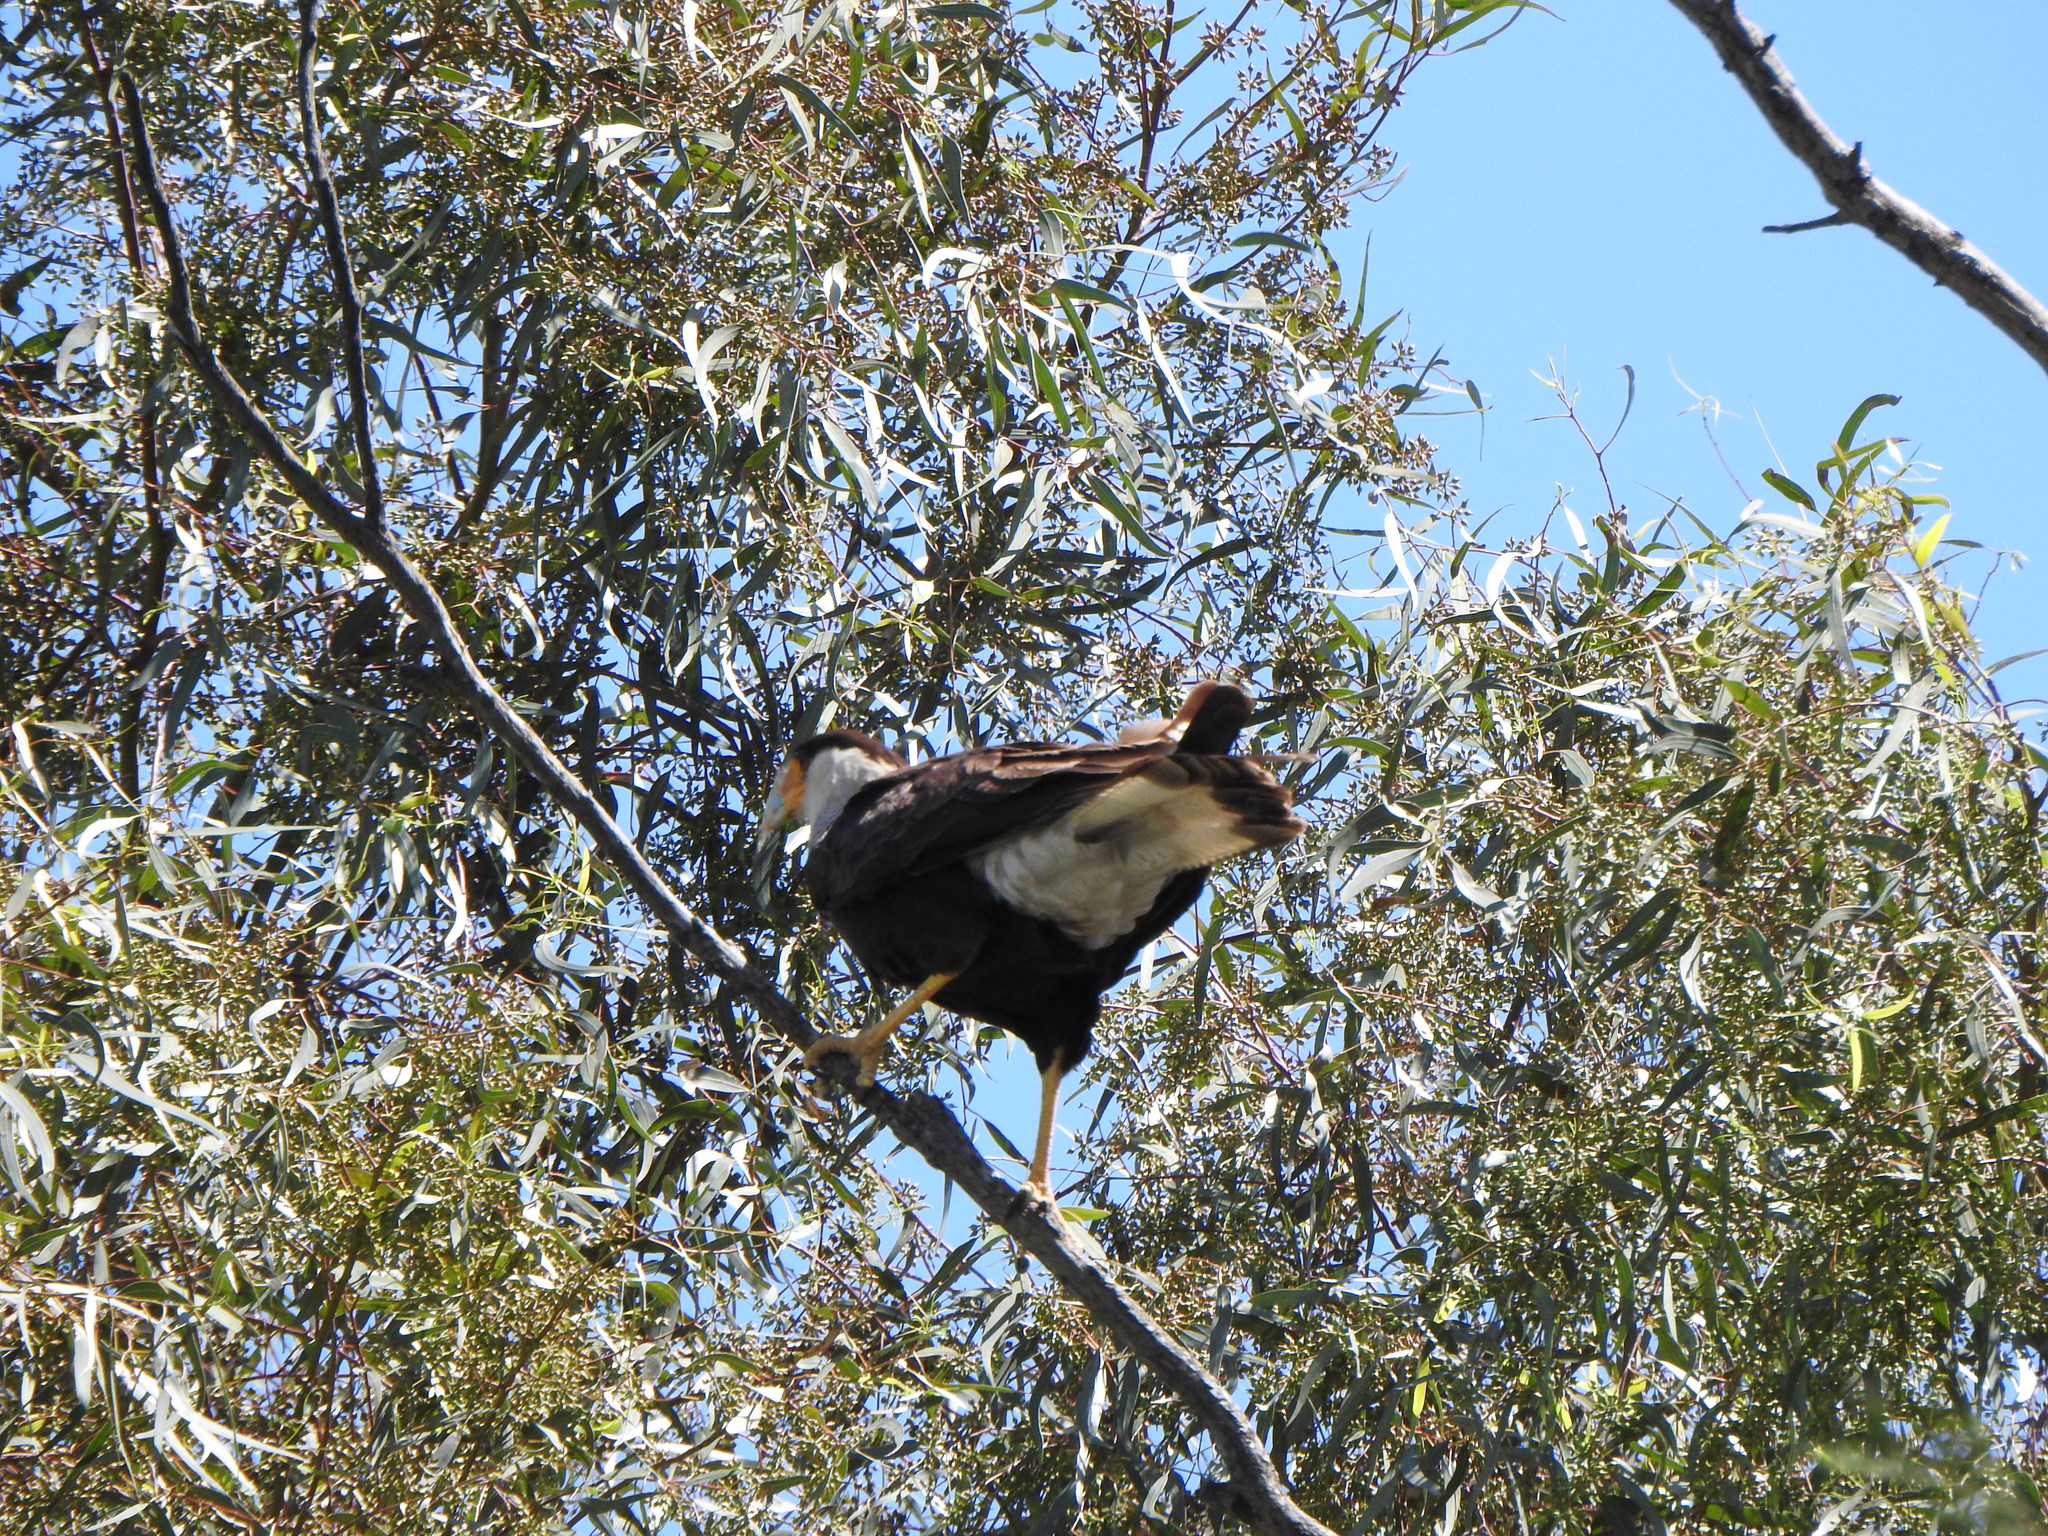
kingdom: Animalia
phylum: Chordata
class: Aves
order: Falconiformes
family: Falconidae
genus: Caracara
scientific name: Caracara plancus
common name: Southern caracara
